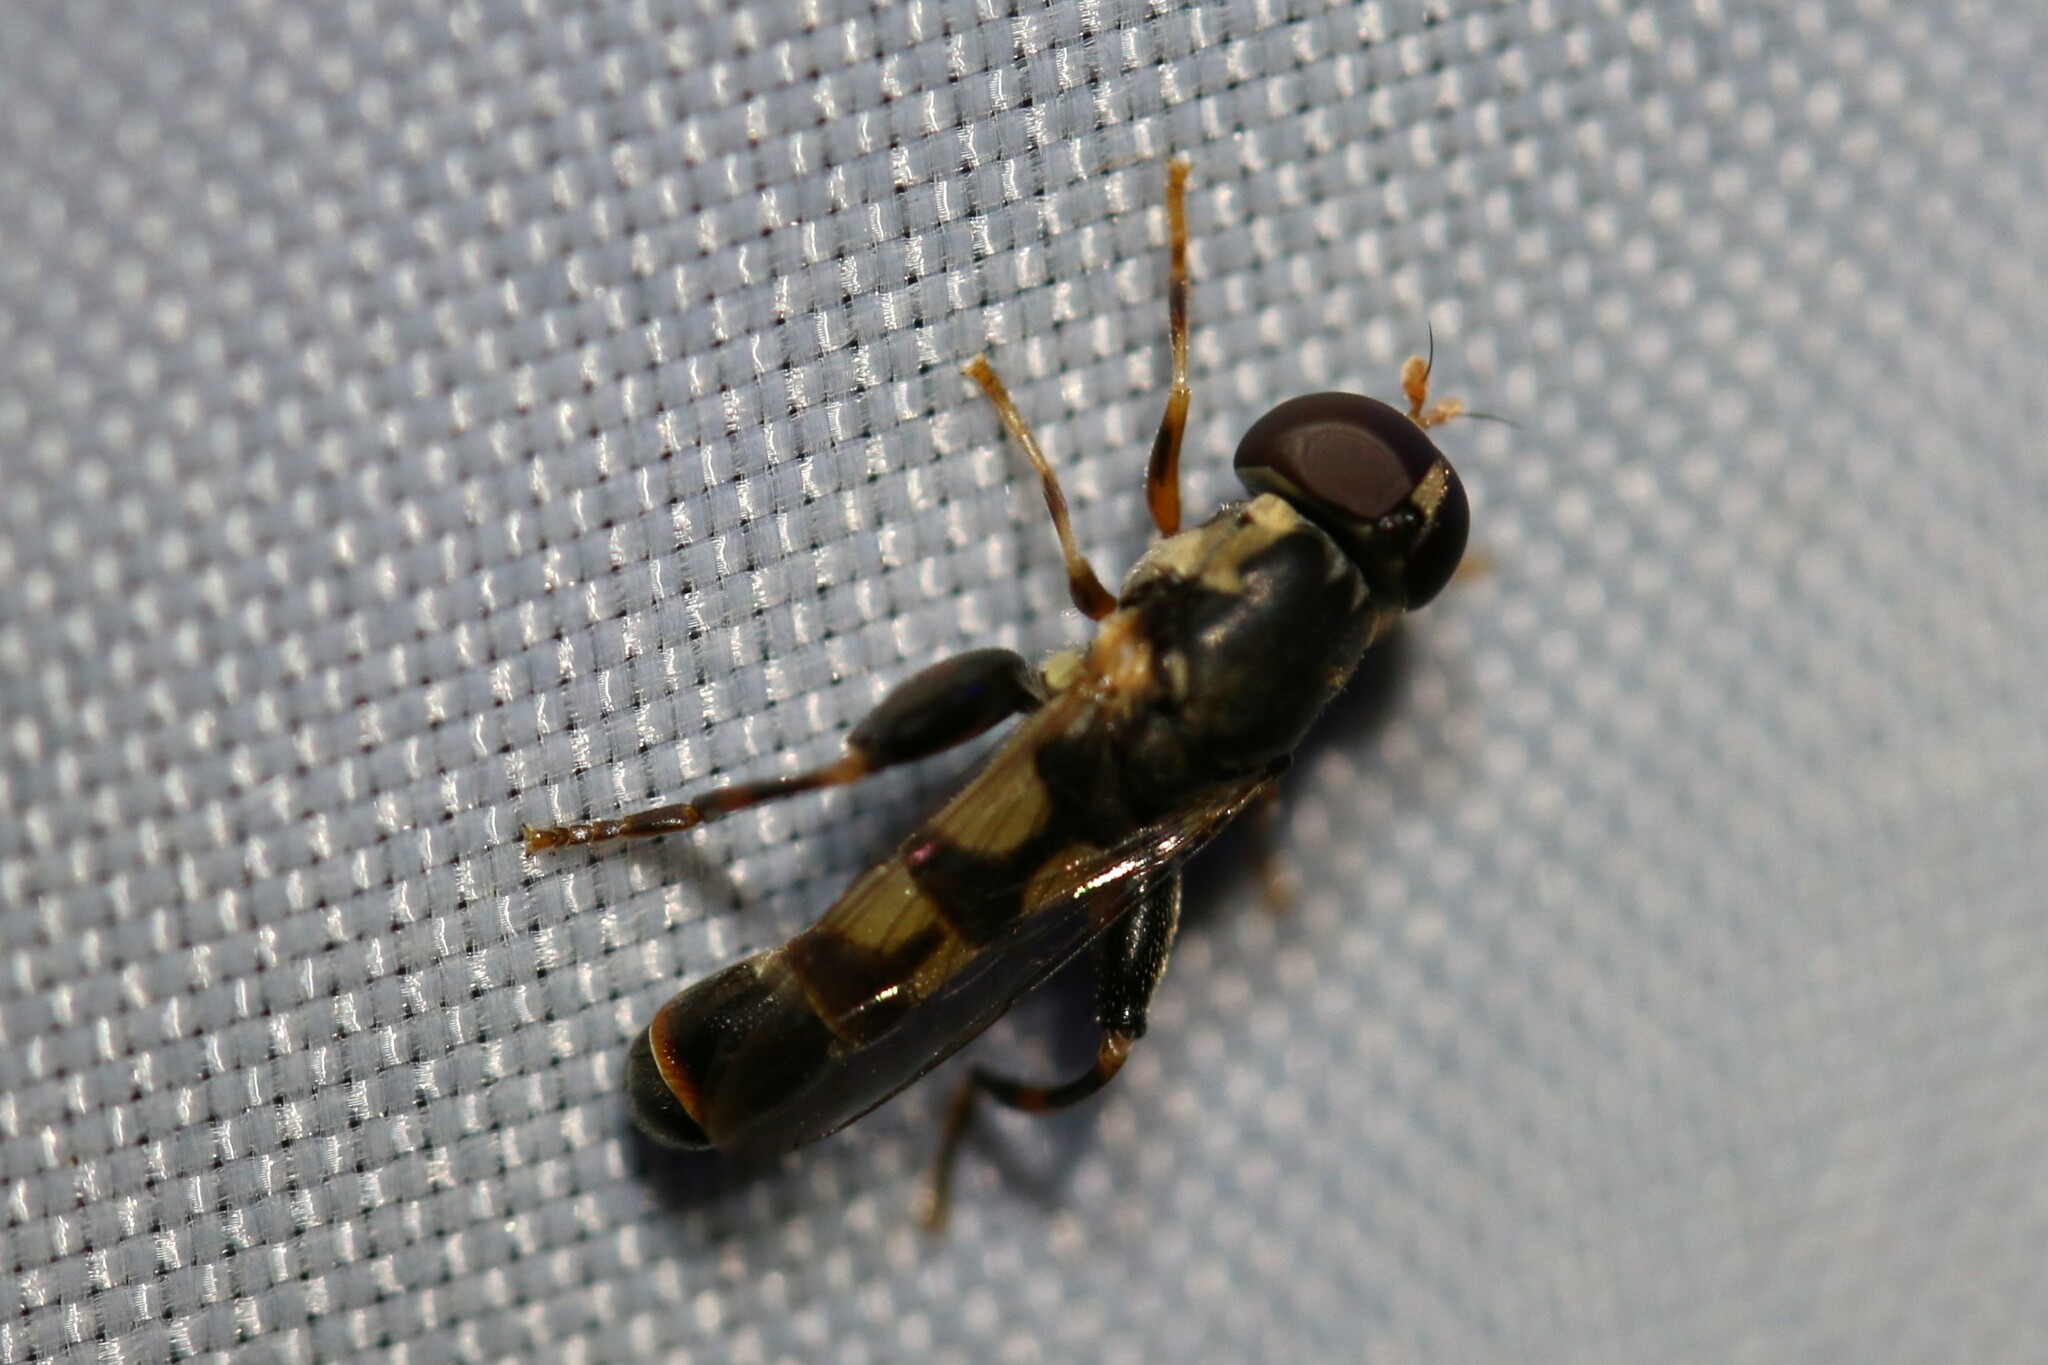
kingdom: Animalia
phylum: Arthropoda
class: Insecta
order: Diptera
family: Syrphidae
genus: Syritta
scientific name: Syritta pipiens
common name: Hover fly
